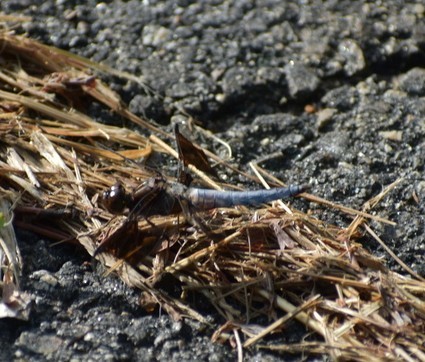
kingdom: Animalia
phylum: Arthropoda
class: Insecta
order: Odonata
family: Libellulidae
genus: Plathemis
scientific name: Plathemis lydia
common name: Common whitetail
